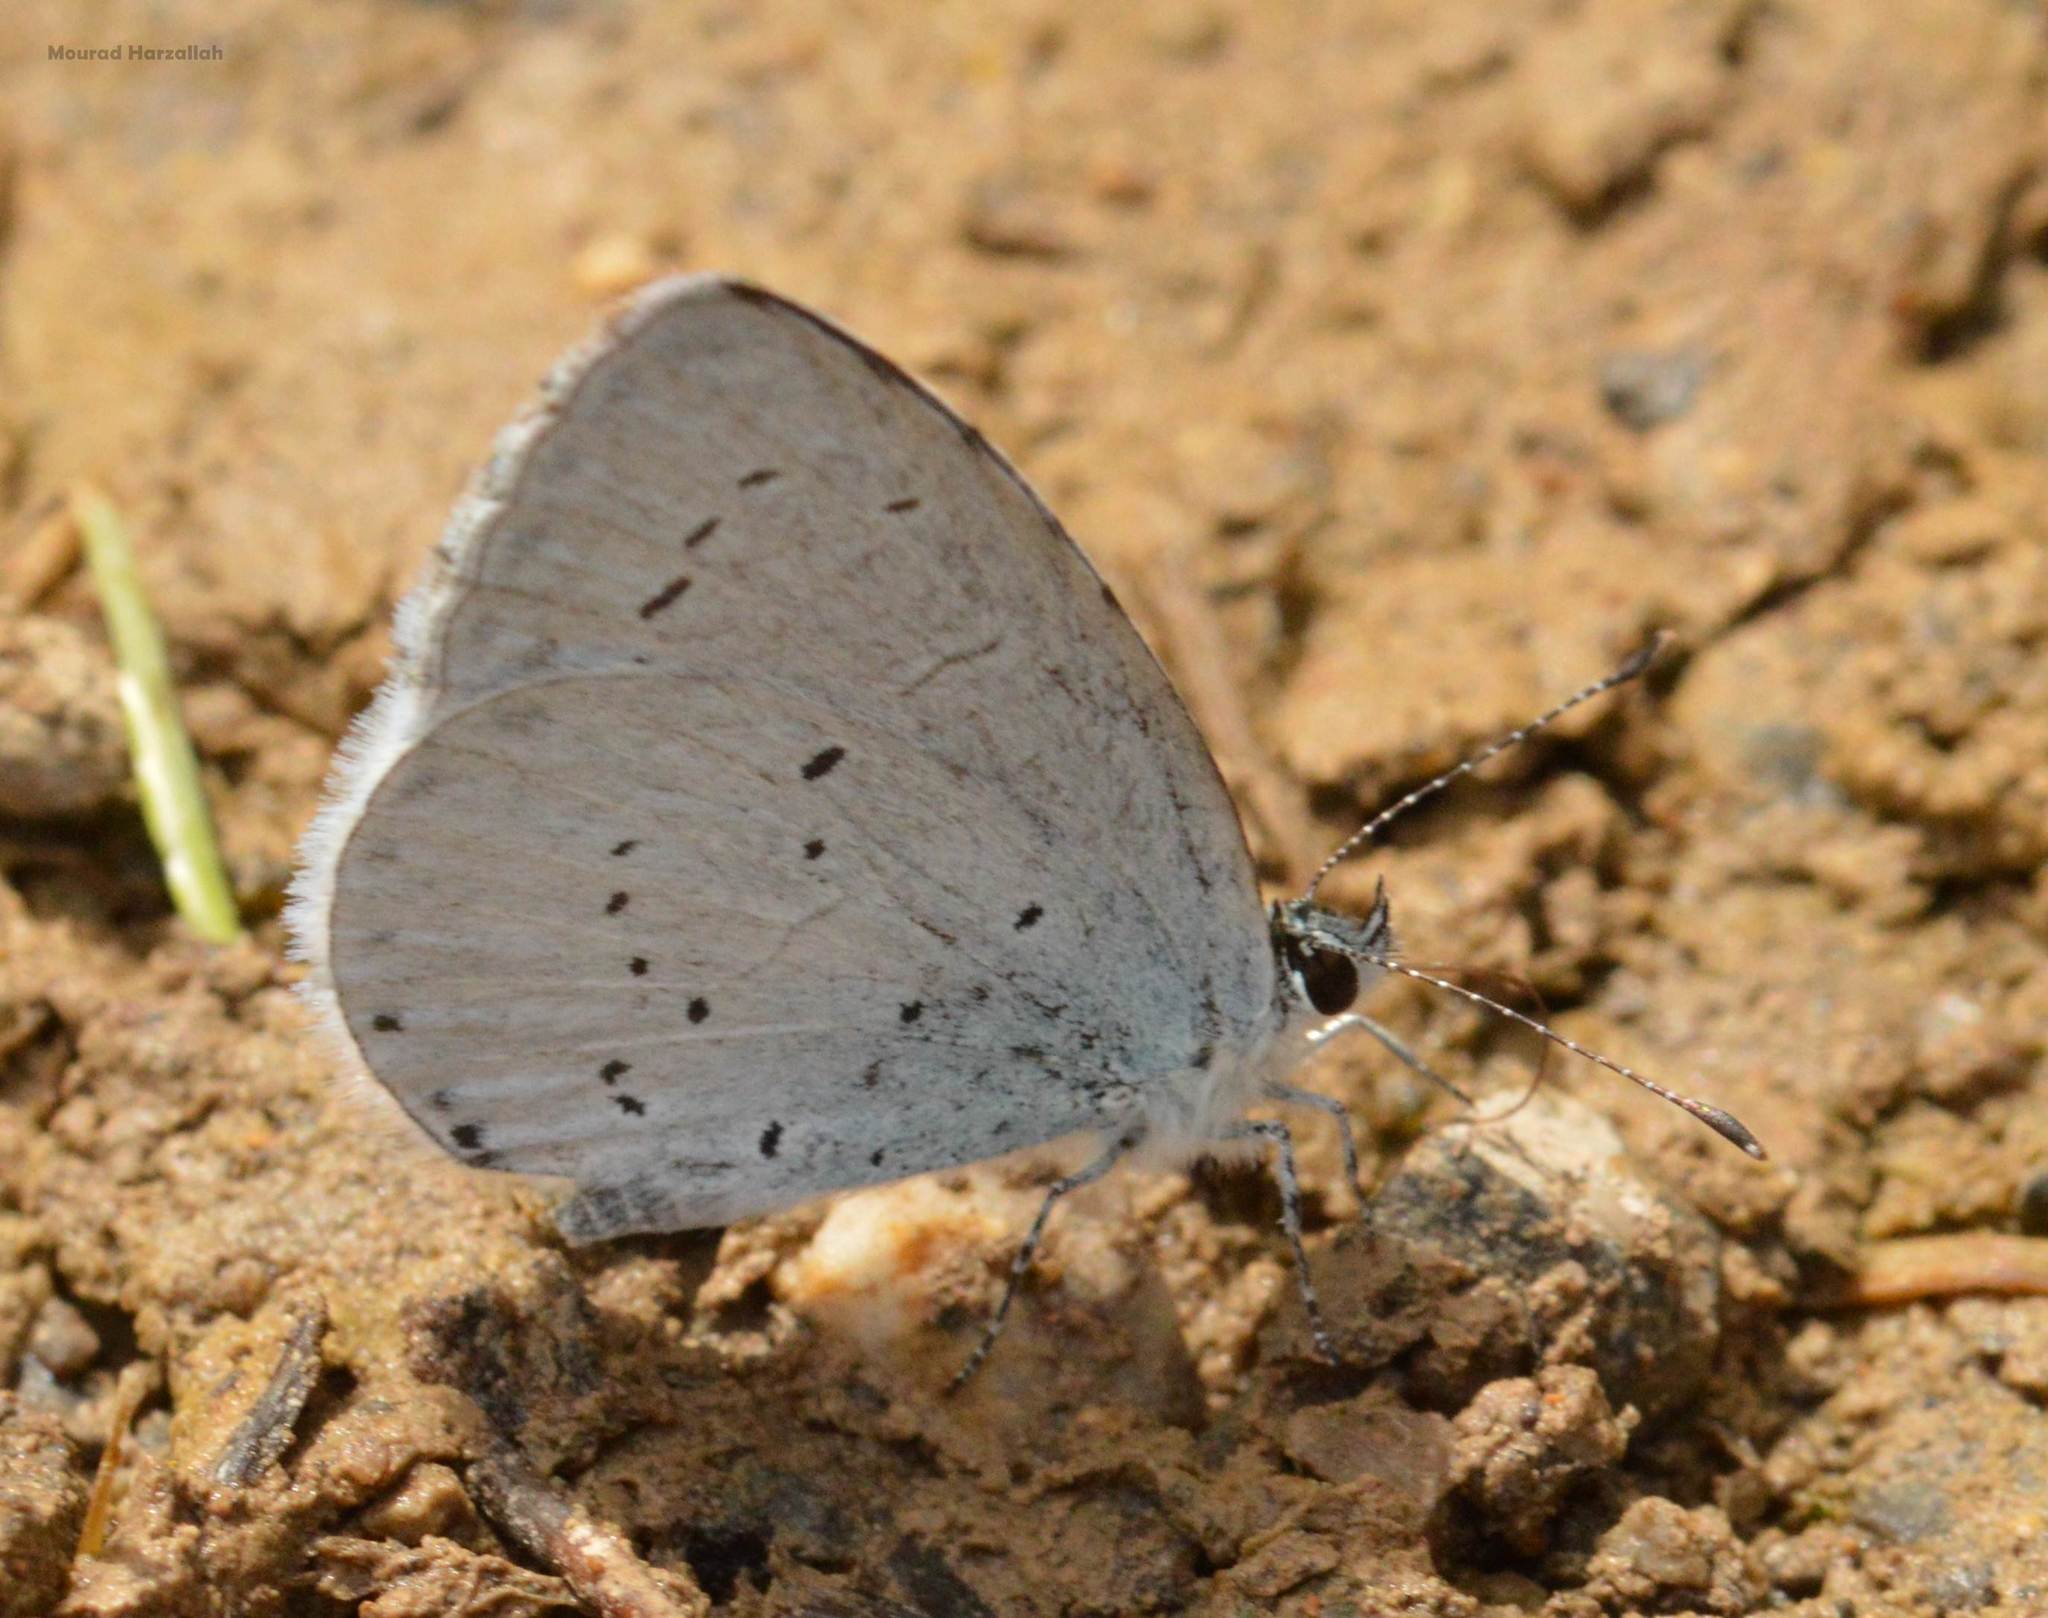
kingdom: Animalia
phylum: Arthropoda
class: Insecta
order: Lepidoptera
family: Lycaenidae
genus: Celastrina
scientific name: Celastrina argiolus
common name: Holly blue
